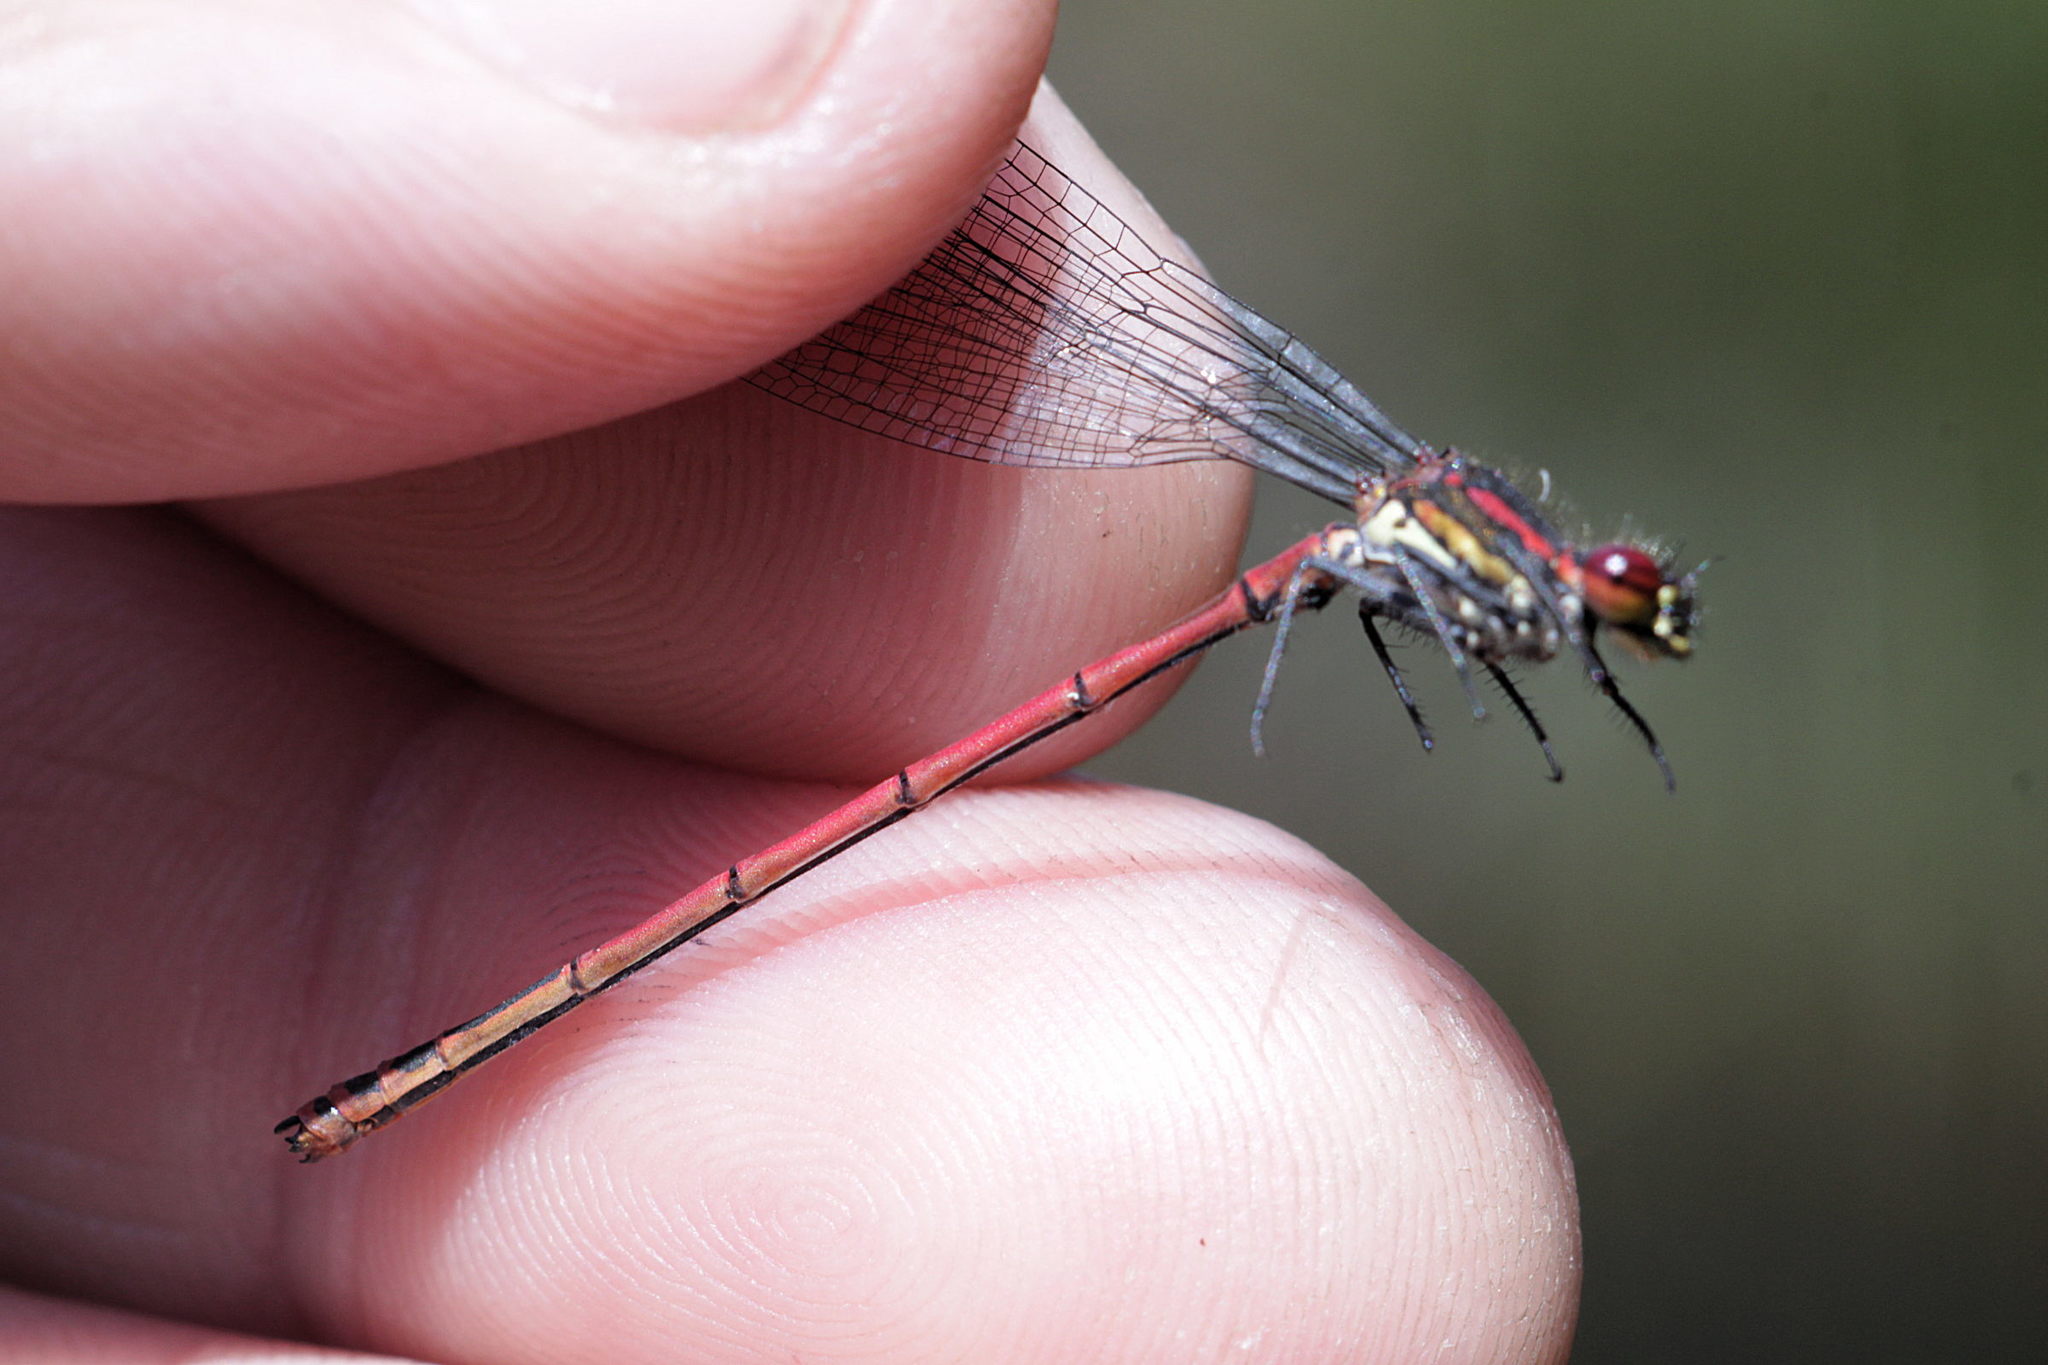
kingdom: Animalia
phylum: Arthropoda
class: Insecta
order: Odonata
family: Coenagrionidae
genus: Pyrrhosoma
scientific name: Pyrrhosoma nymphula
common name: Large red damsel
